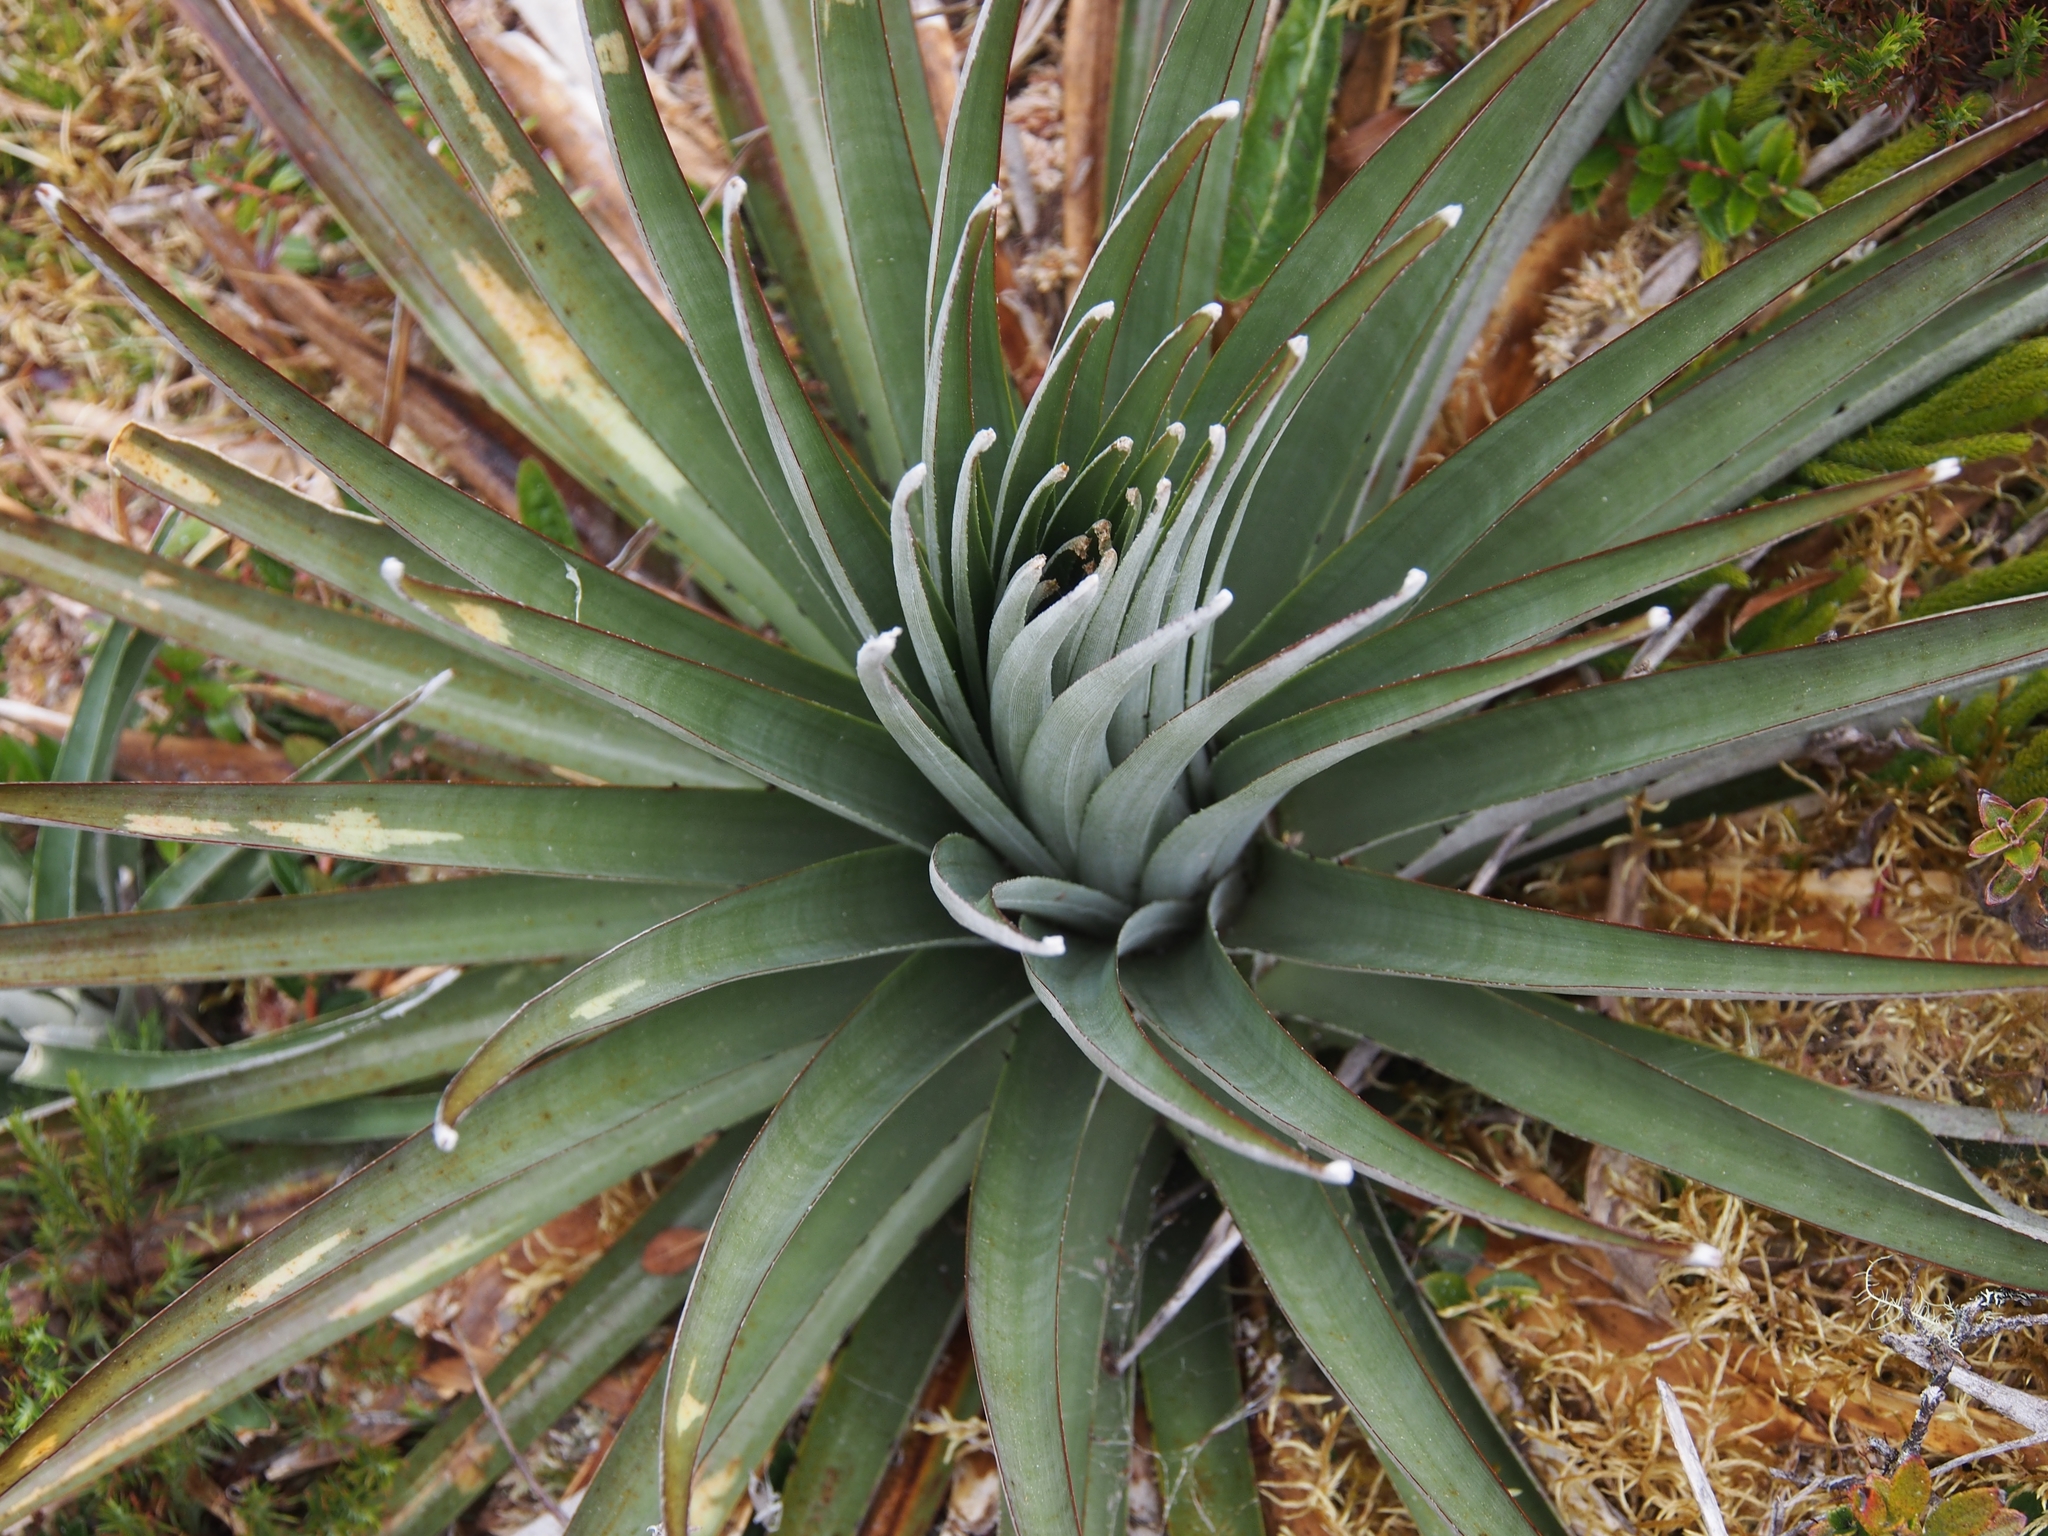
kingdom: Plantae
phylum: Tracheophyta
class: Liliopsida
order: Poales
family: Bromeliaceae
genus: Puya
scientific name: Puya dasylirioides
